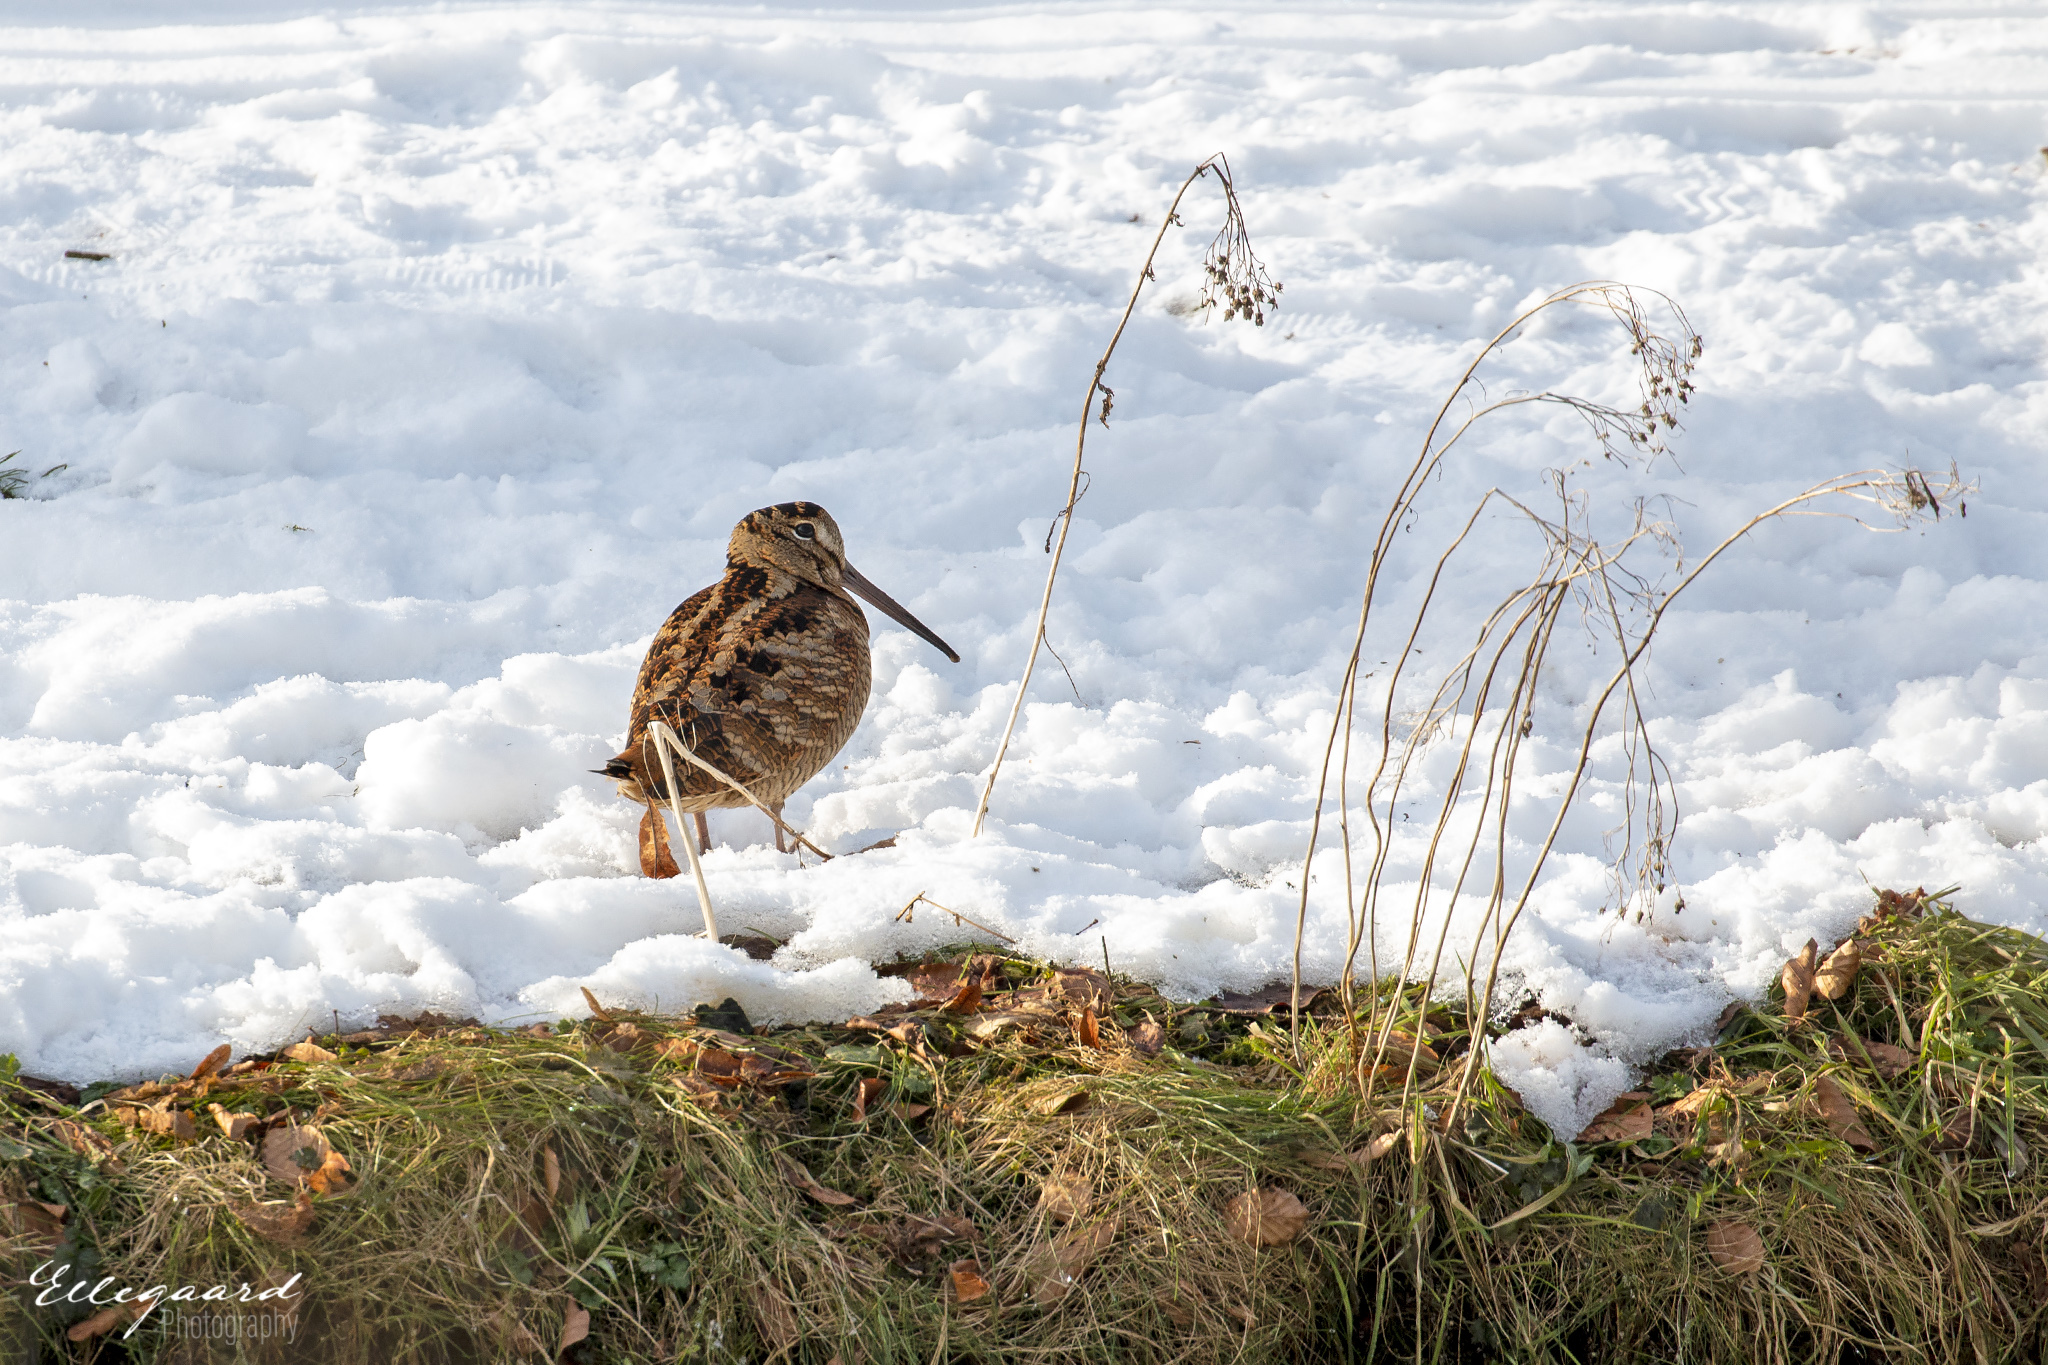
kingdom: Animalia
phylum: Chordata
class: Aves
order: Charadriiformes
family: Scolopacidae
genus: Scolopax
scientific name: Scolopax rusticola
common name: Eurasian woodcock
